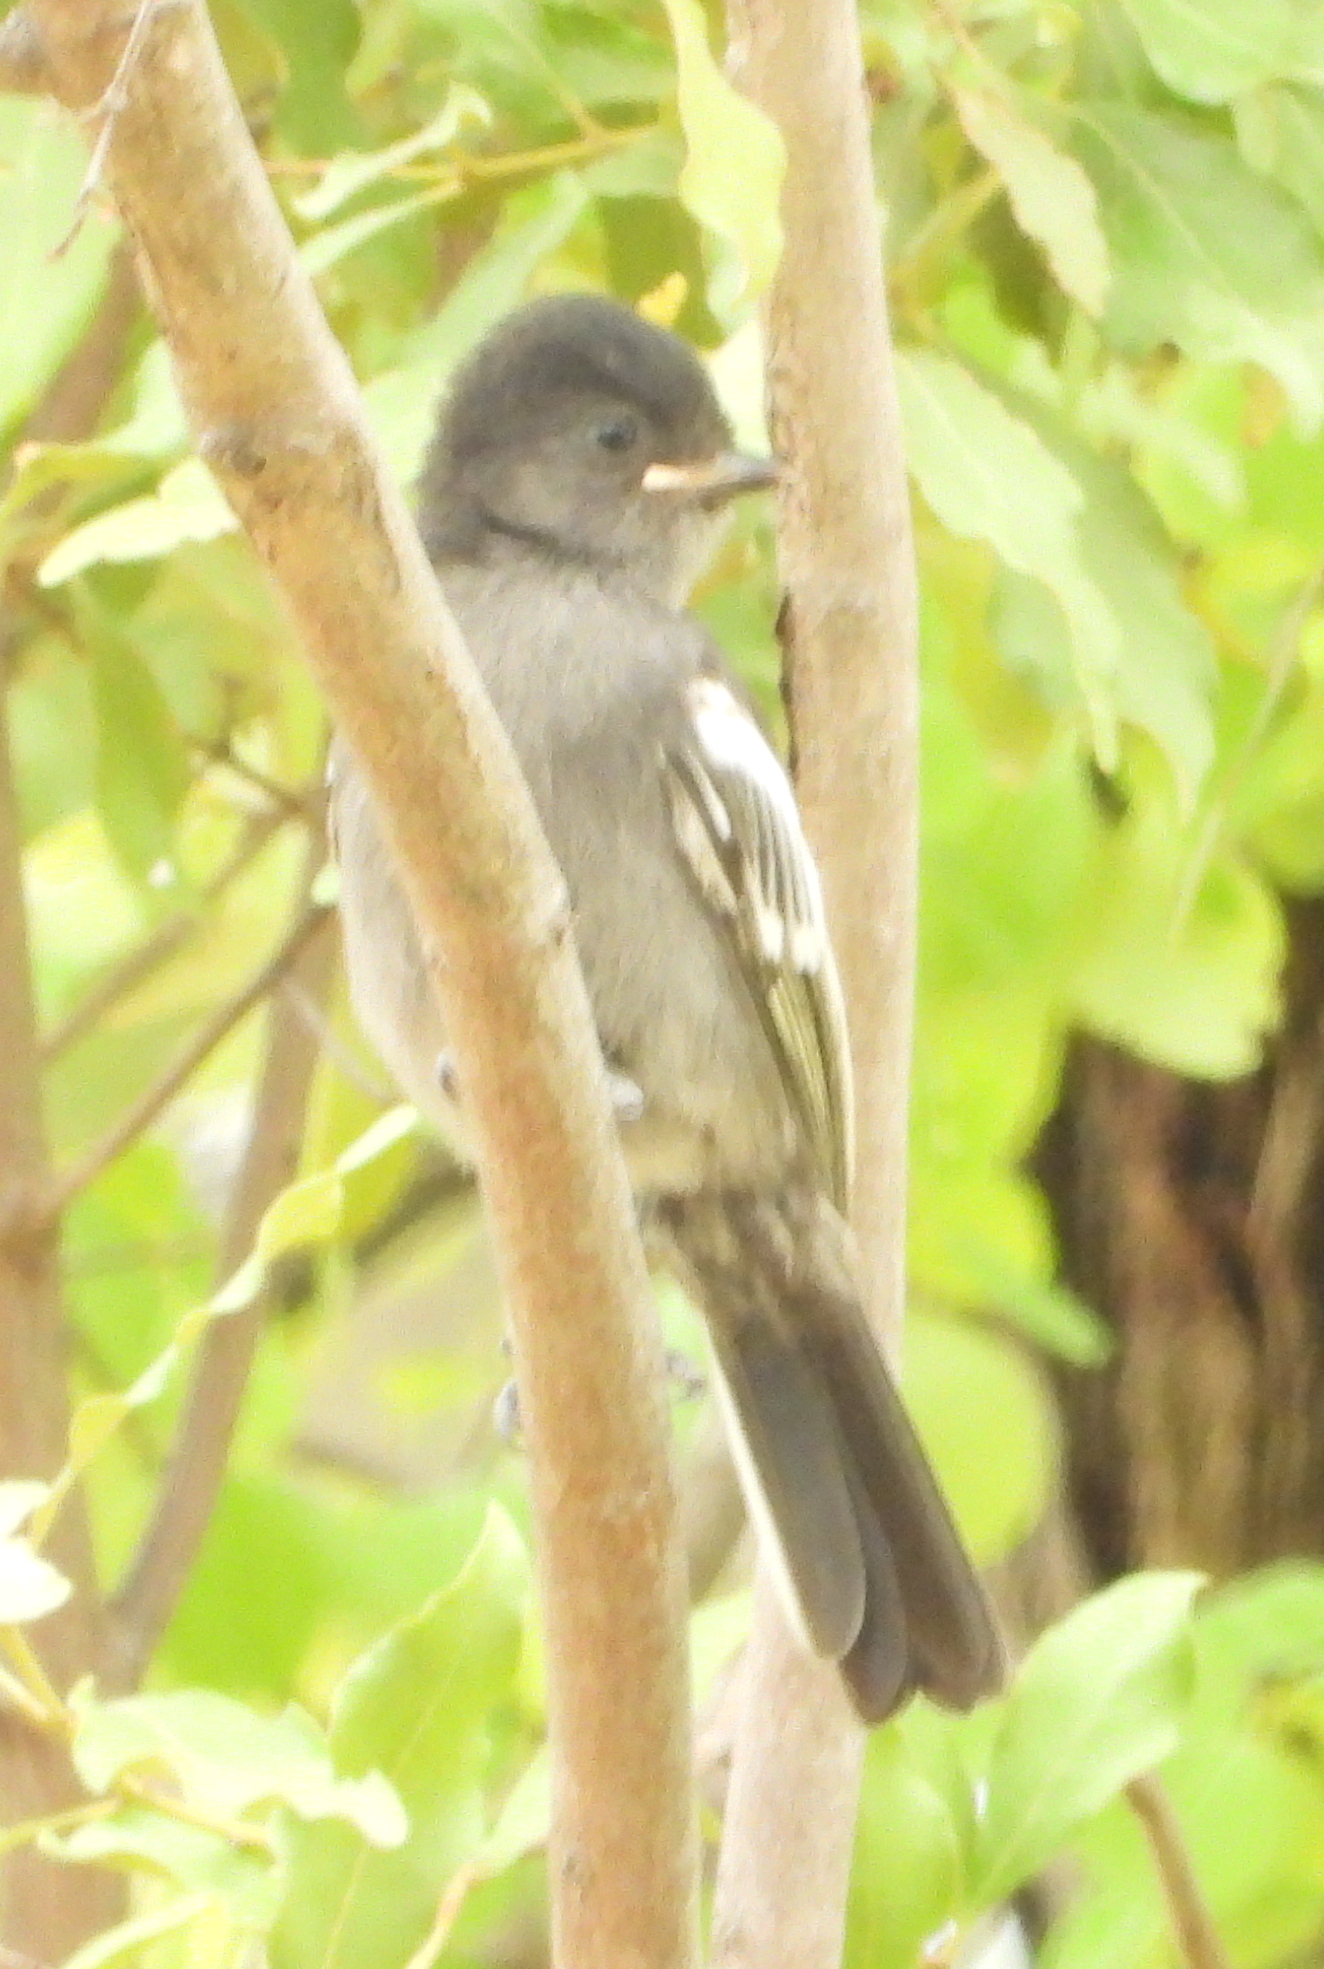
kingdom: Animalia
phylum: Chordata
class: Aves
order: Passeriformes
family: Paridae
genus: Parus
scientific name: Parus niger
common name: Southern black tit
